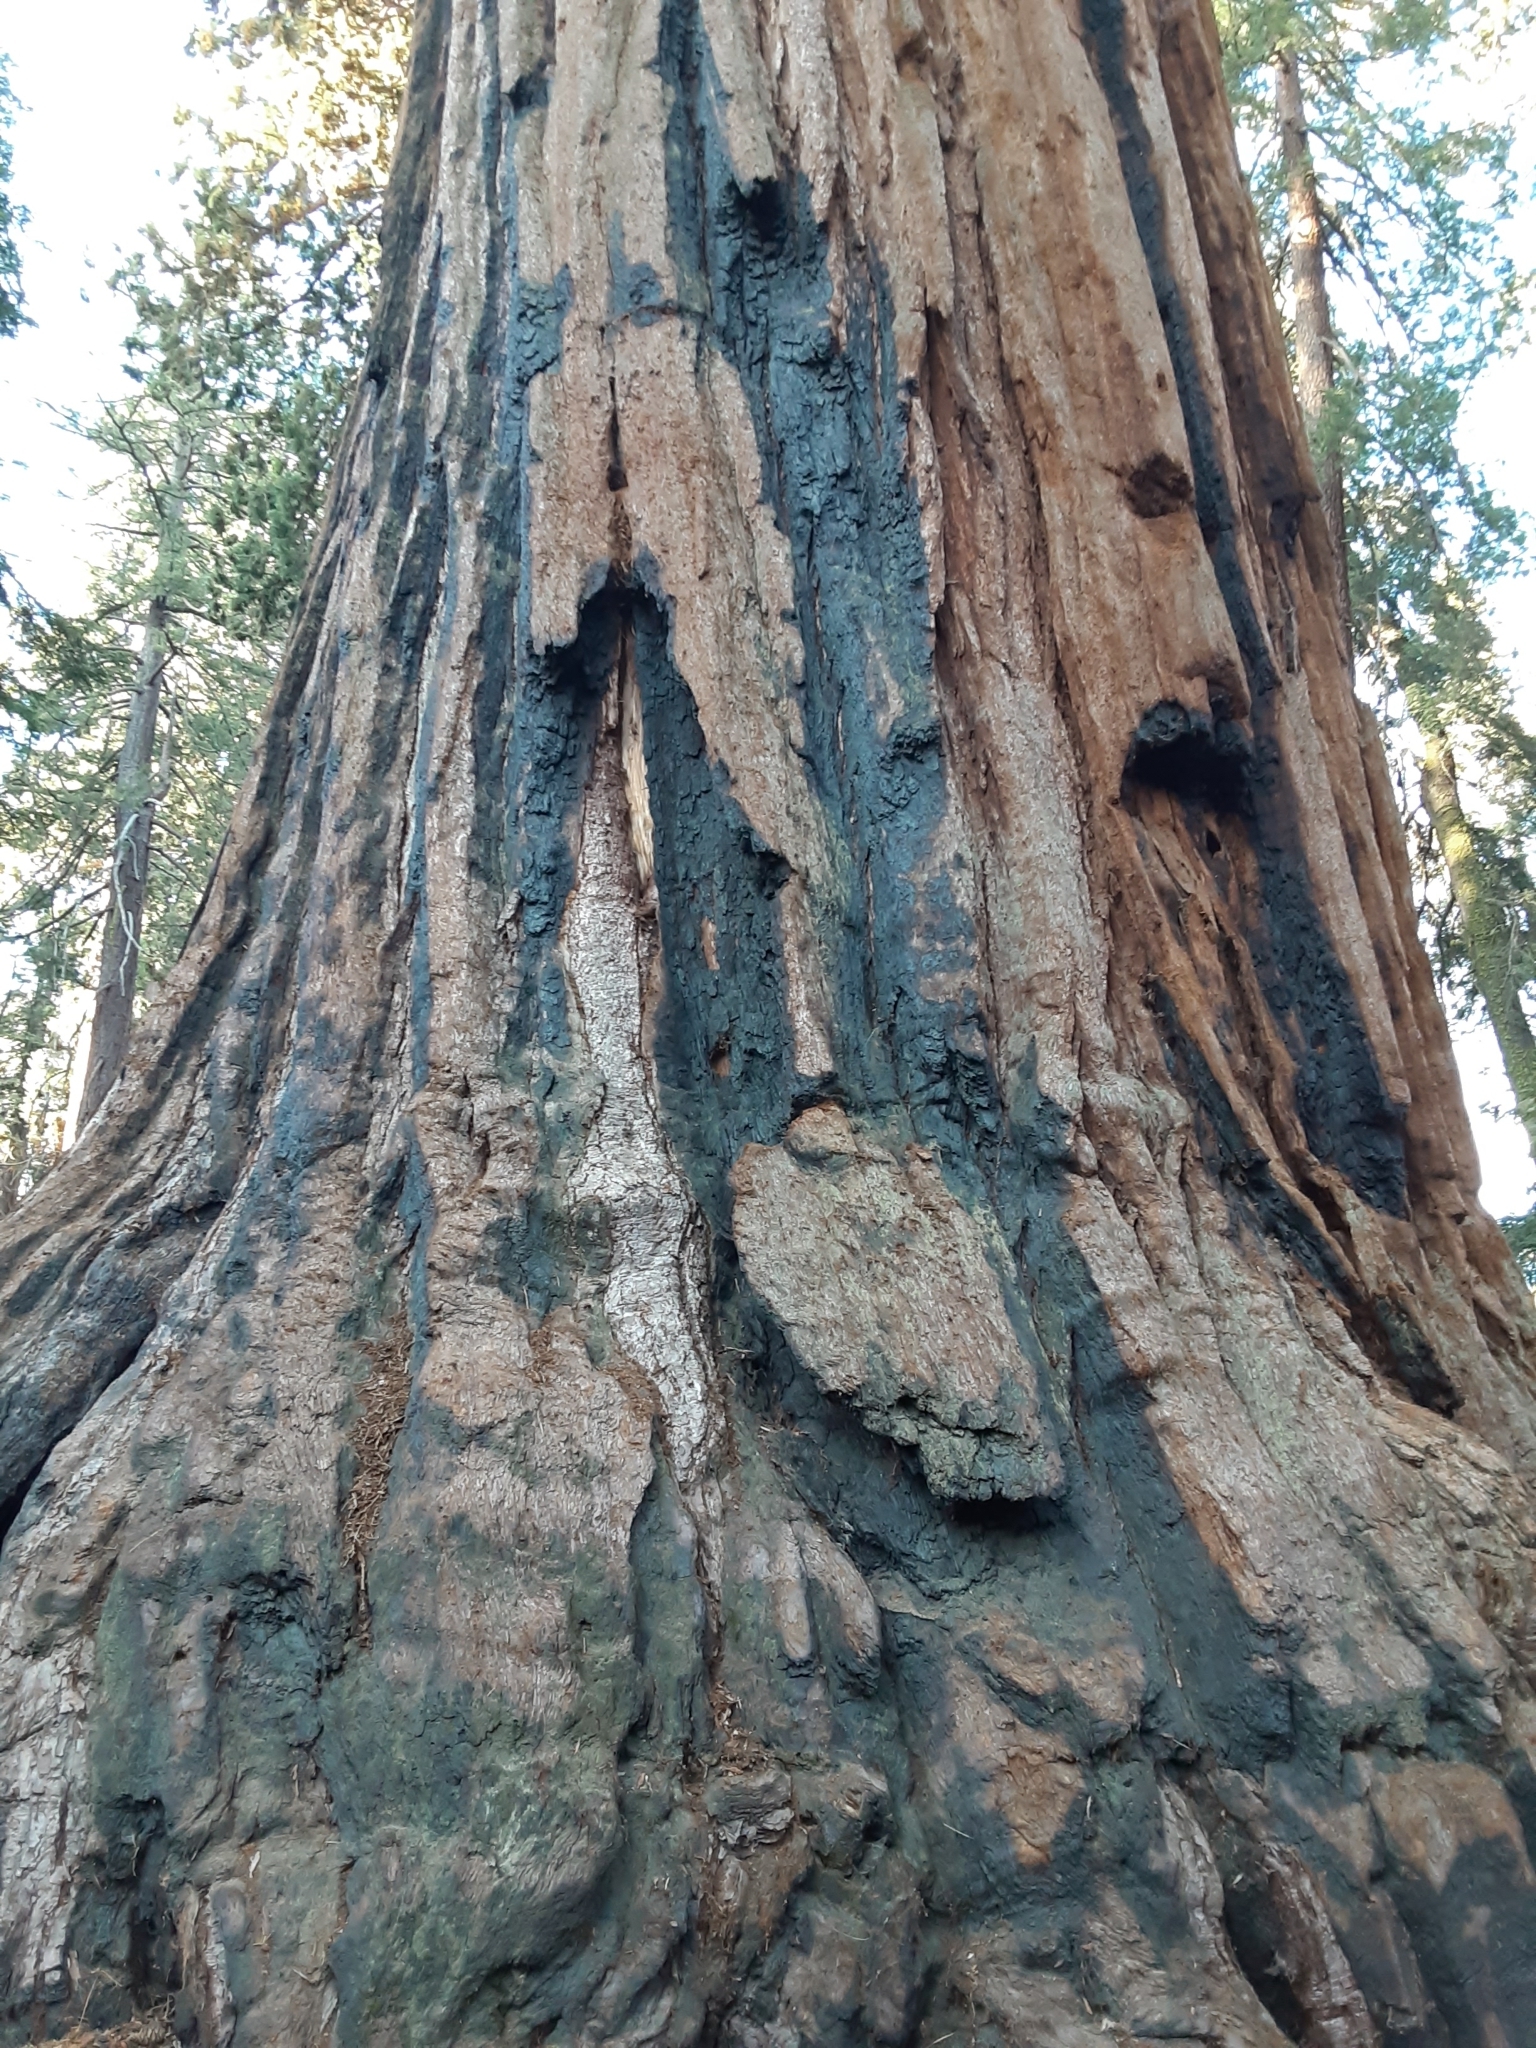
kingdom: Plantae
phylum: Tracheophyta
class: Pinopsida
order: Pinales
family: Cupressaceae
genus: Sequoiadendron
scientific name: Sequoiadendron giganteum
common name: Wellingtonia
